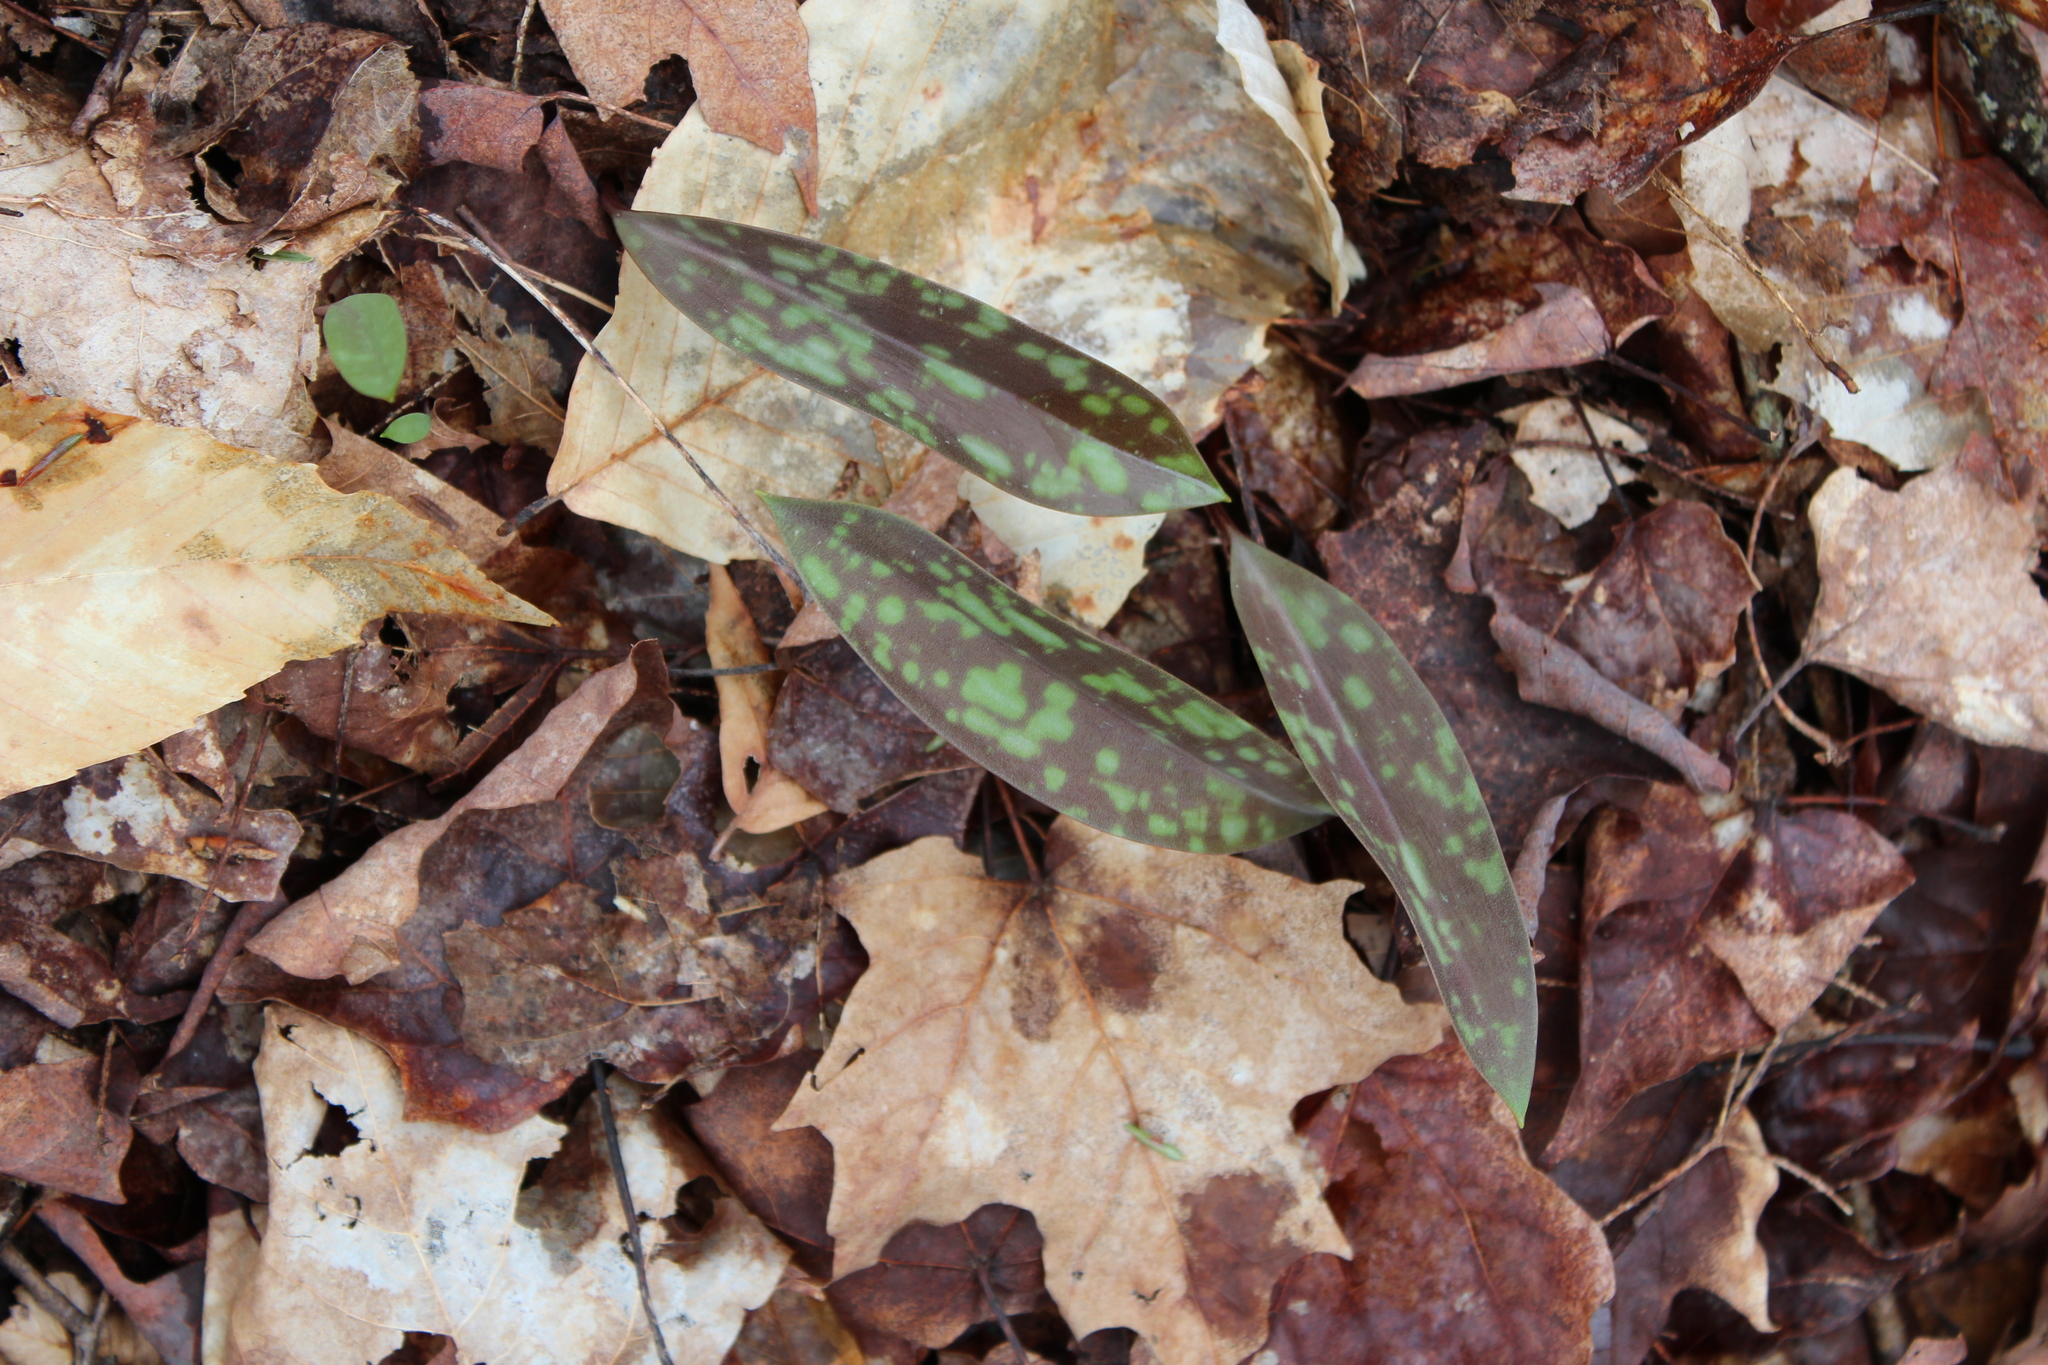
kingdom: Plantae
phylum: Tracheophyta
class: Liliopsida
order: Liliales
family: Liliaceae
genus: Erythronium
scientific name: Erythronium americanum
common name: Yellow adder's-tongue
